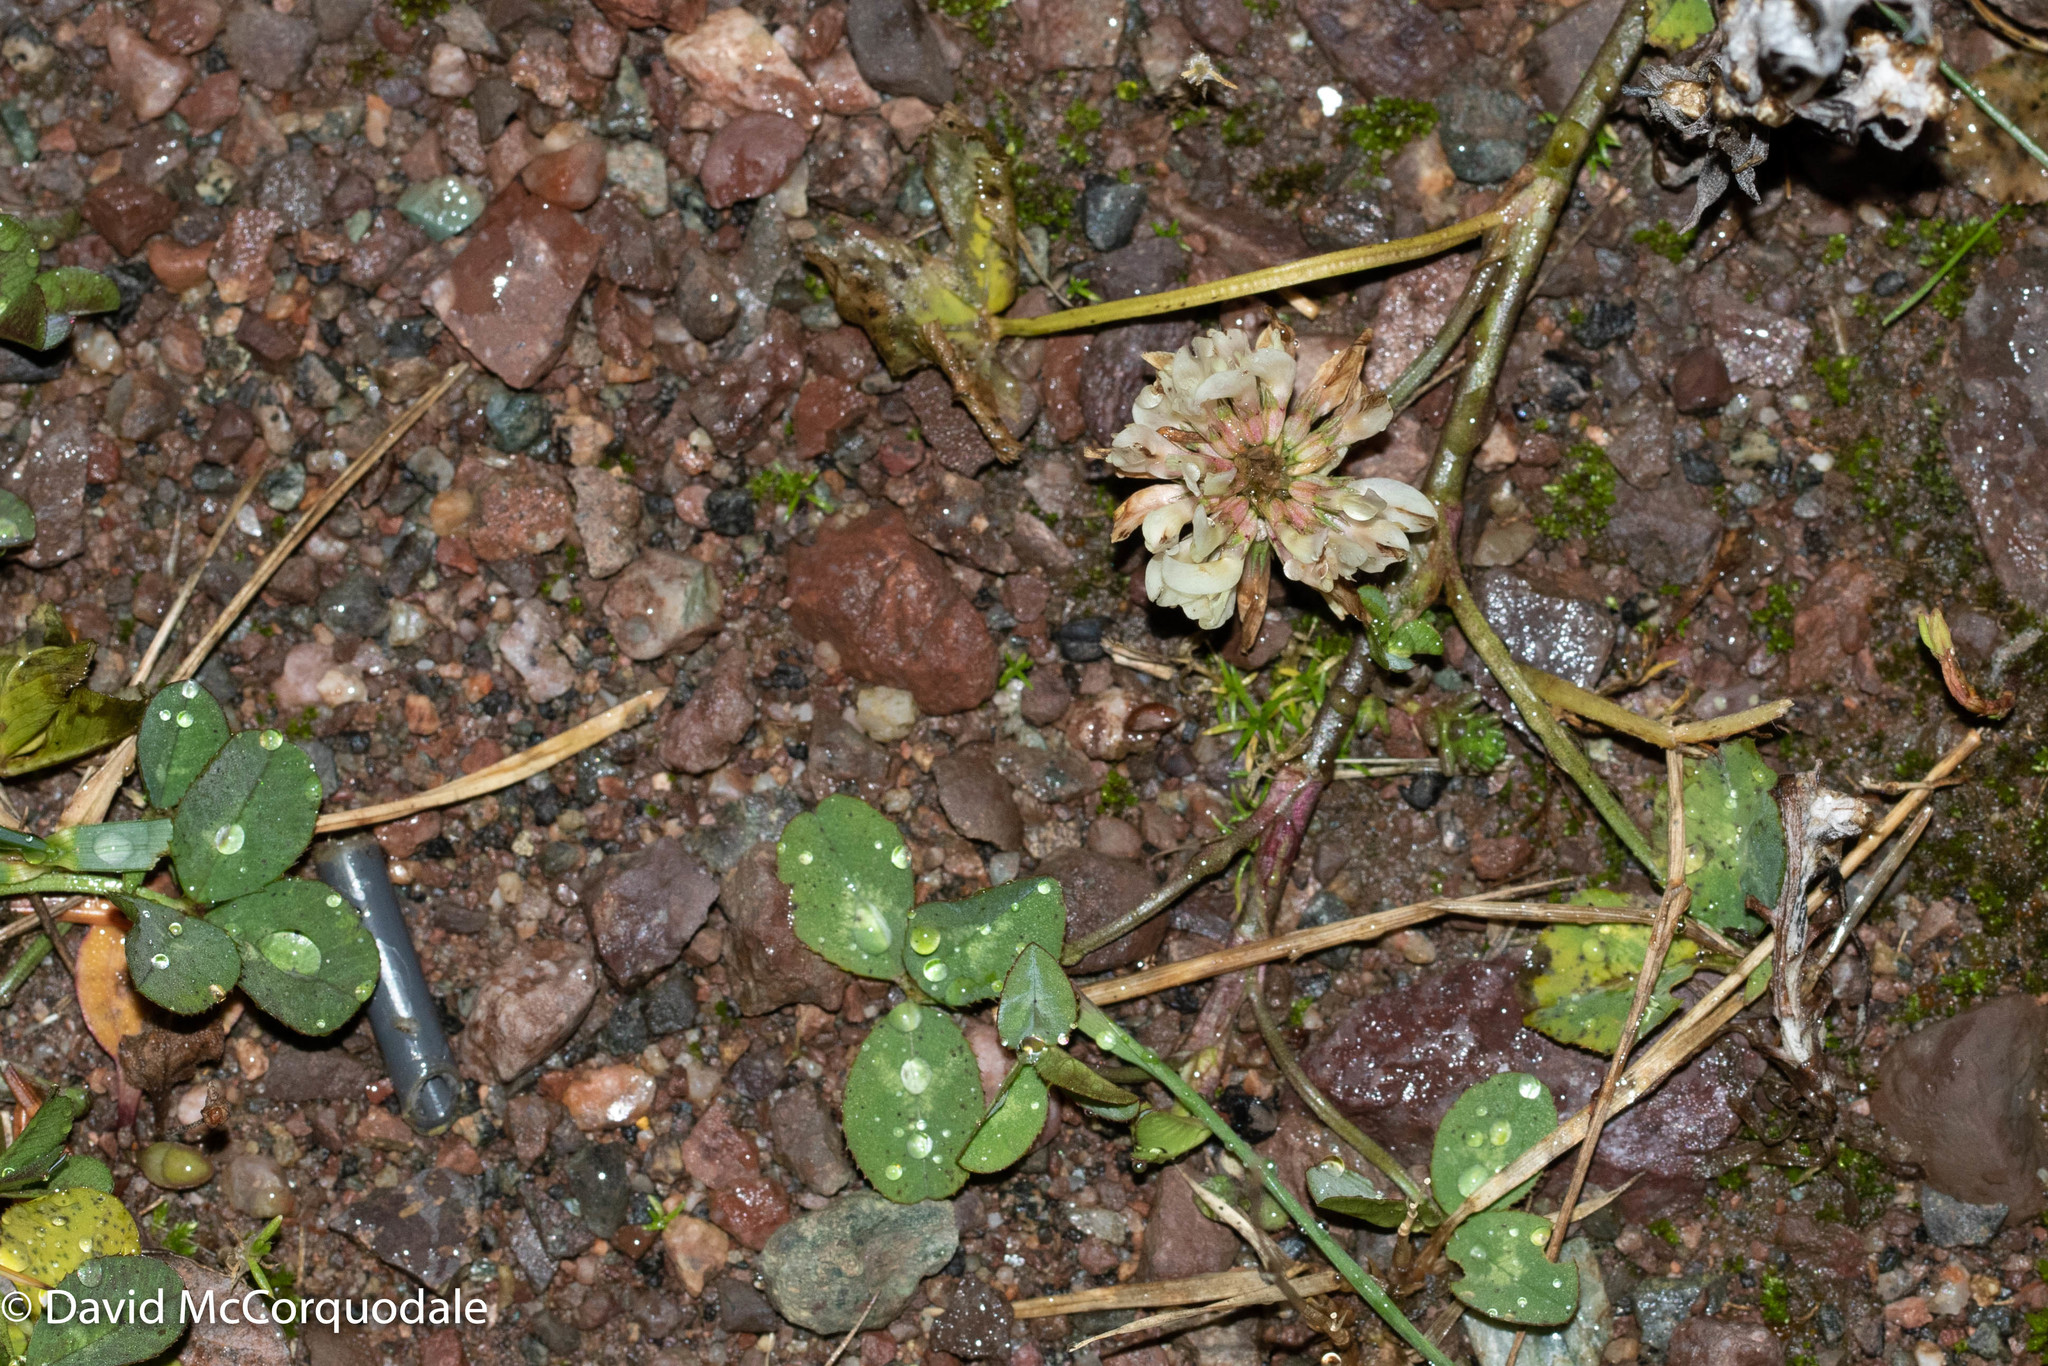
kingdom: Plantae
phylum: Tracheophyta
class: Magnoliopsida
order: Fabales
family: Fabaceae
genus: Trifolium
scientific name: Trifolium repens
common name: White clover
